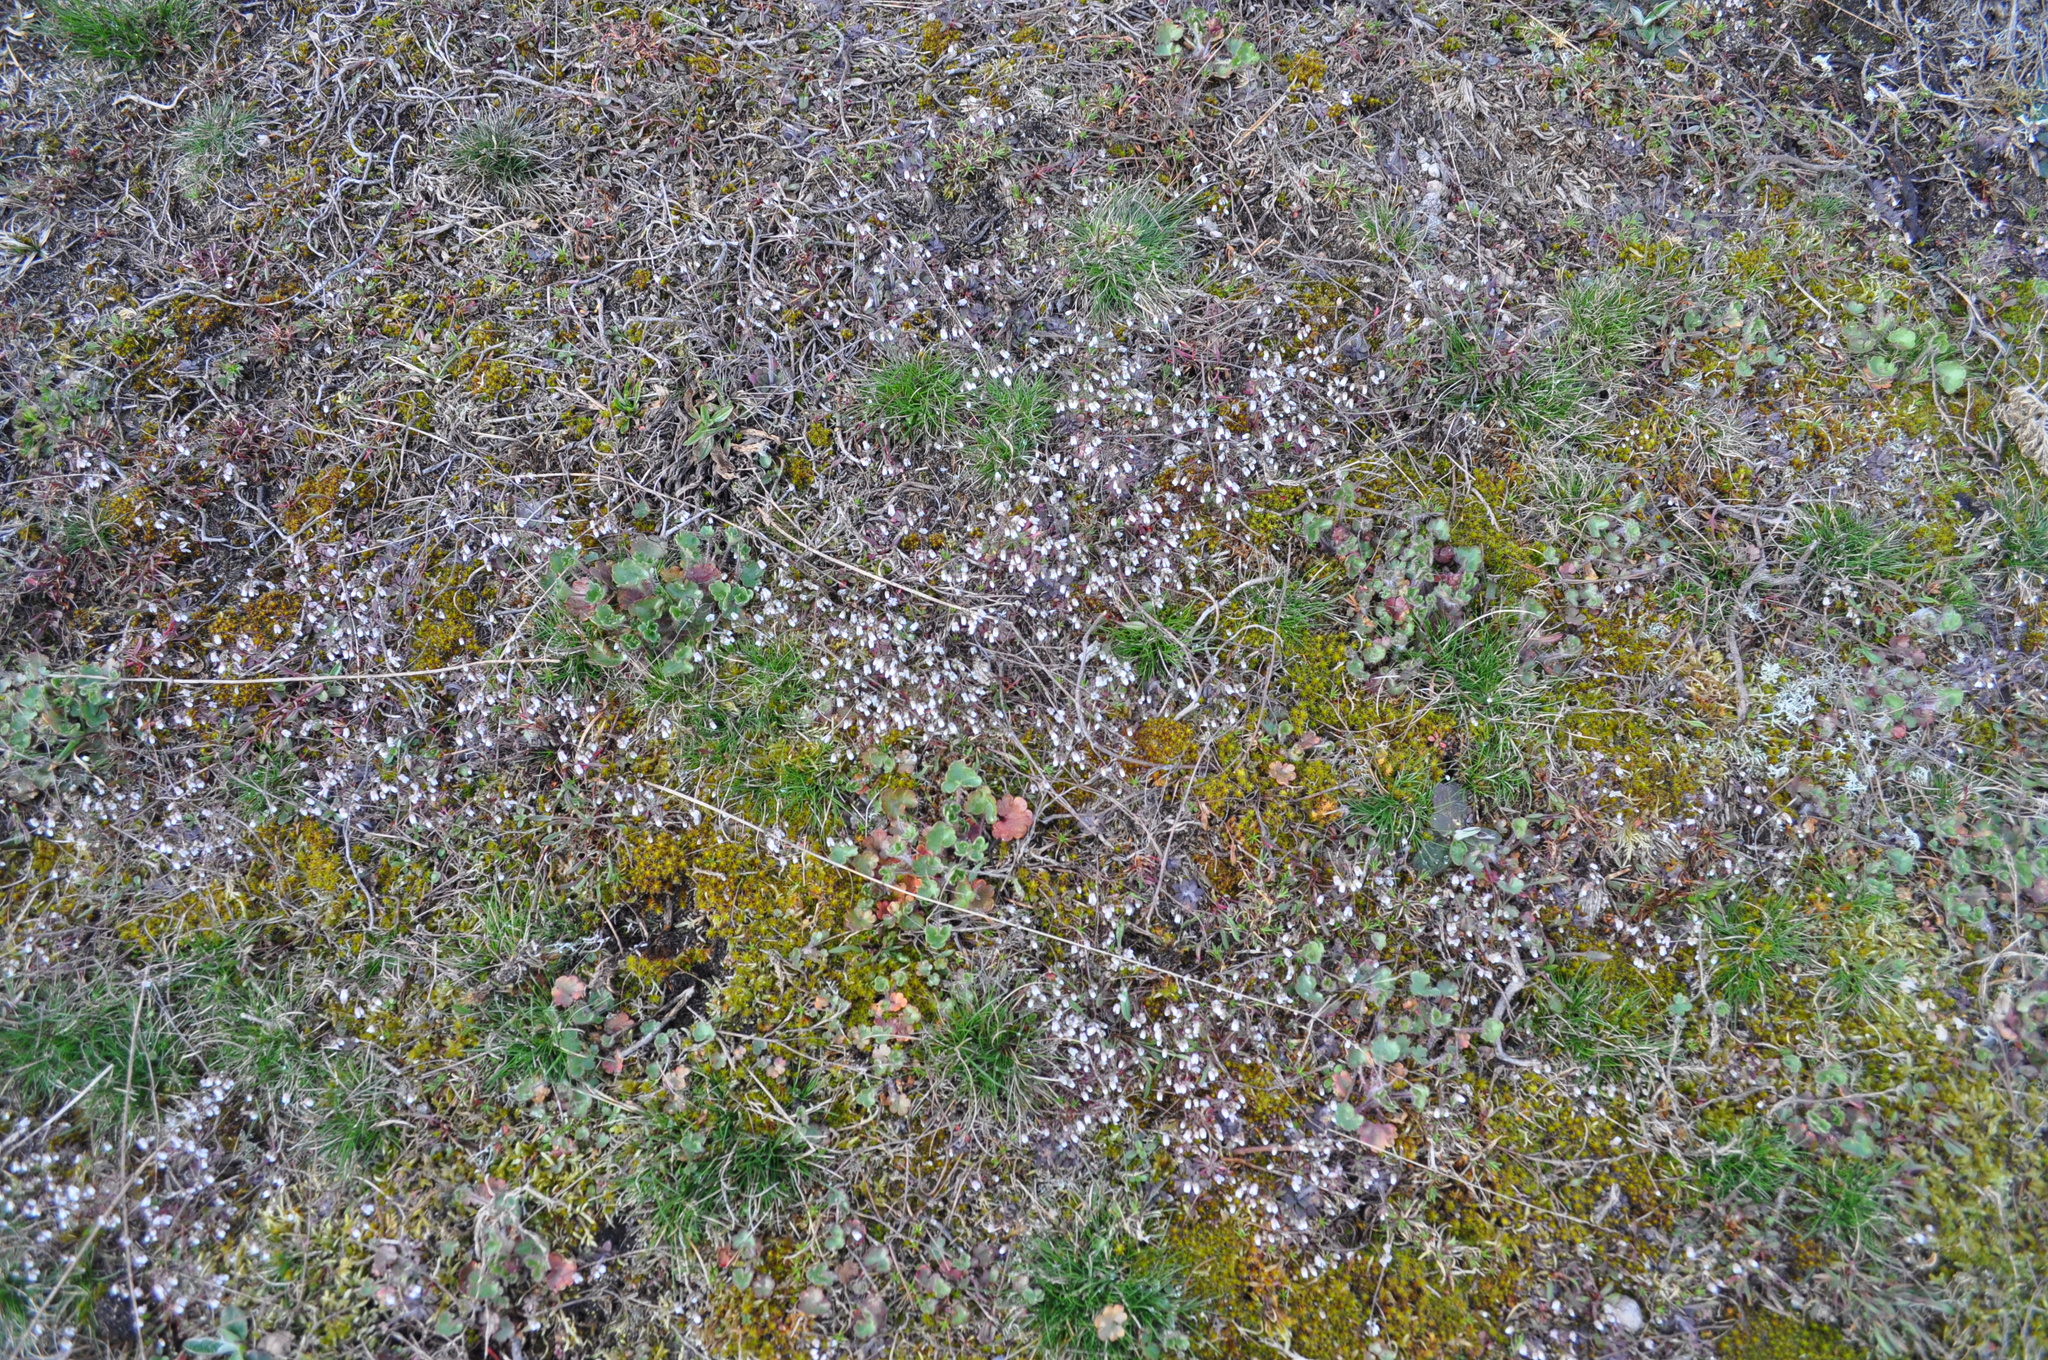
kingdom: Plantae
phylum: Tracheophyta
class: Magnoliopsida
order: Brassicales
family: Brassicaceae
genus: Draba
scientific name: Draba verna
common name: Spring draba
